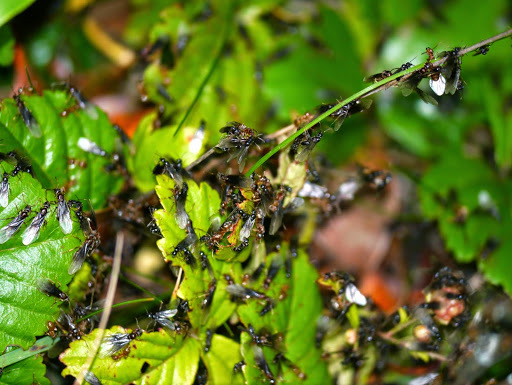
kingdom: Animalia
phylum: Arthropoda
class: Insecta
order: Hymenoptera
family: Formicidae
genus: Lasius
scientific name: Lasius aphidicola
